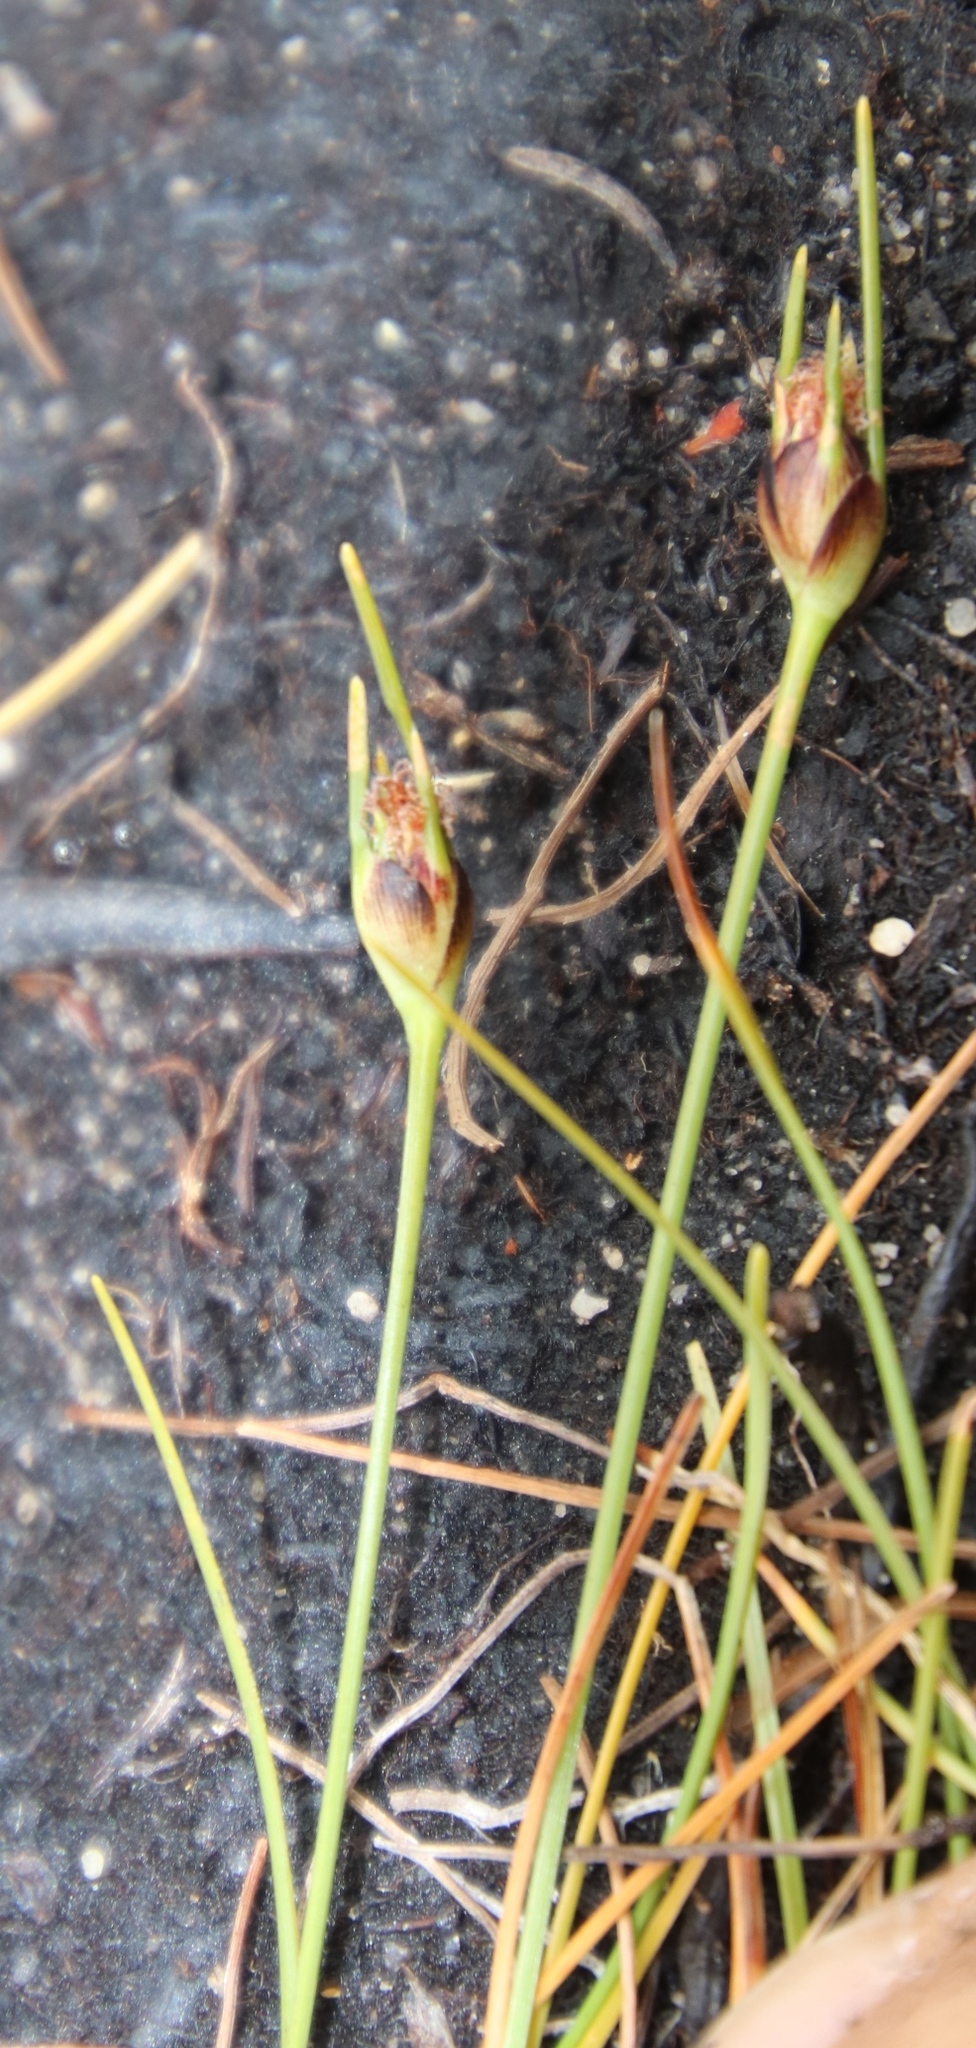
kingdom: Plantae
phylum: Tracheophyta
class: Liliopsida
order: Poales
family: Cyperaceae
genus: Ficinia
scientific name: Ficinia capitella
